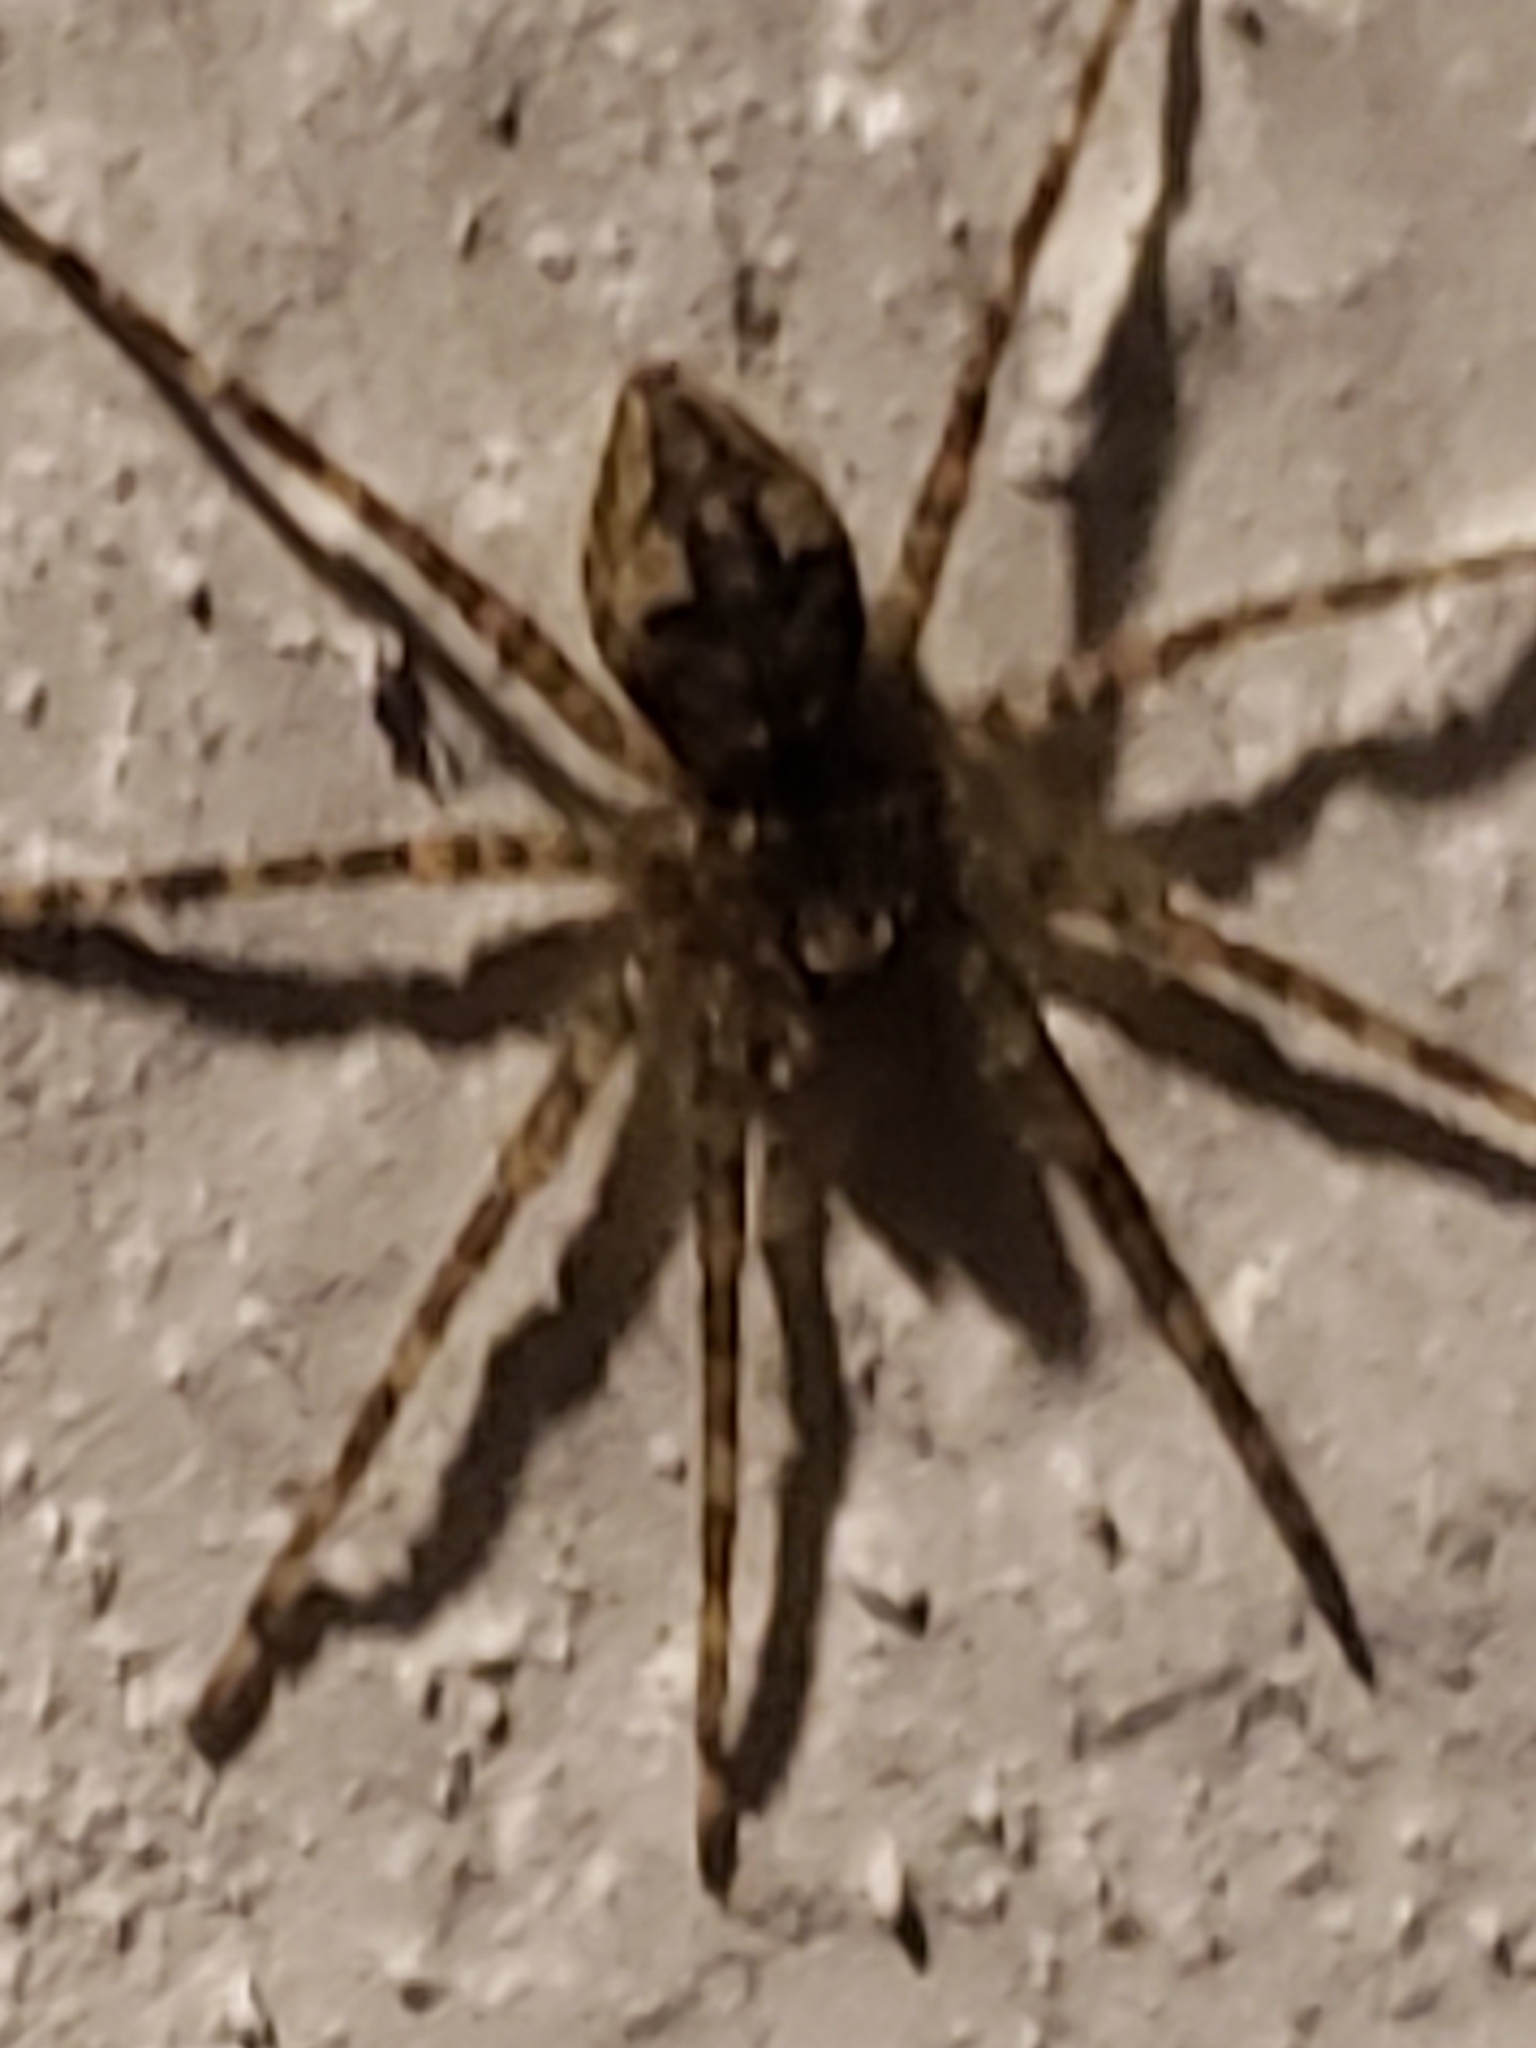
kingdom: Animalia
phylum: Arthropoda
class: Arachnida
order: Araneae
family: Pisauridae
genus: Dolomedes
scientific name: Dolomedes albineus
